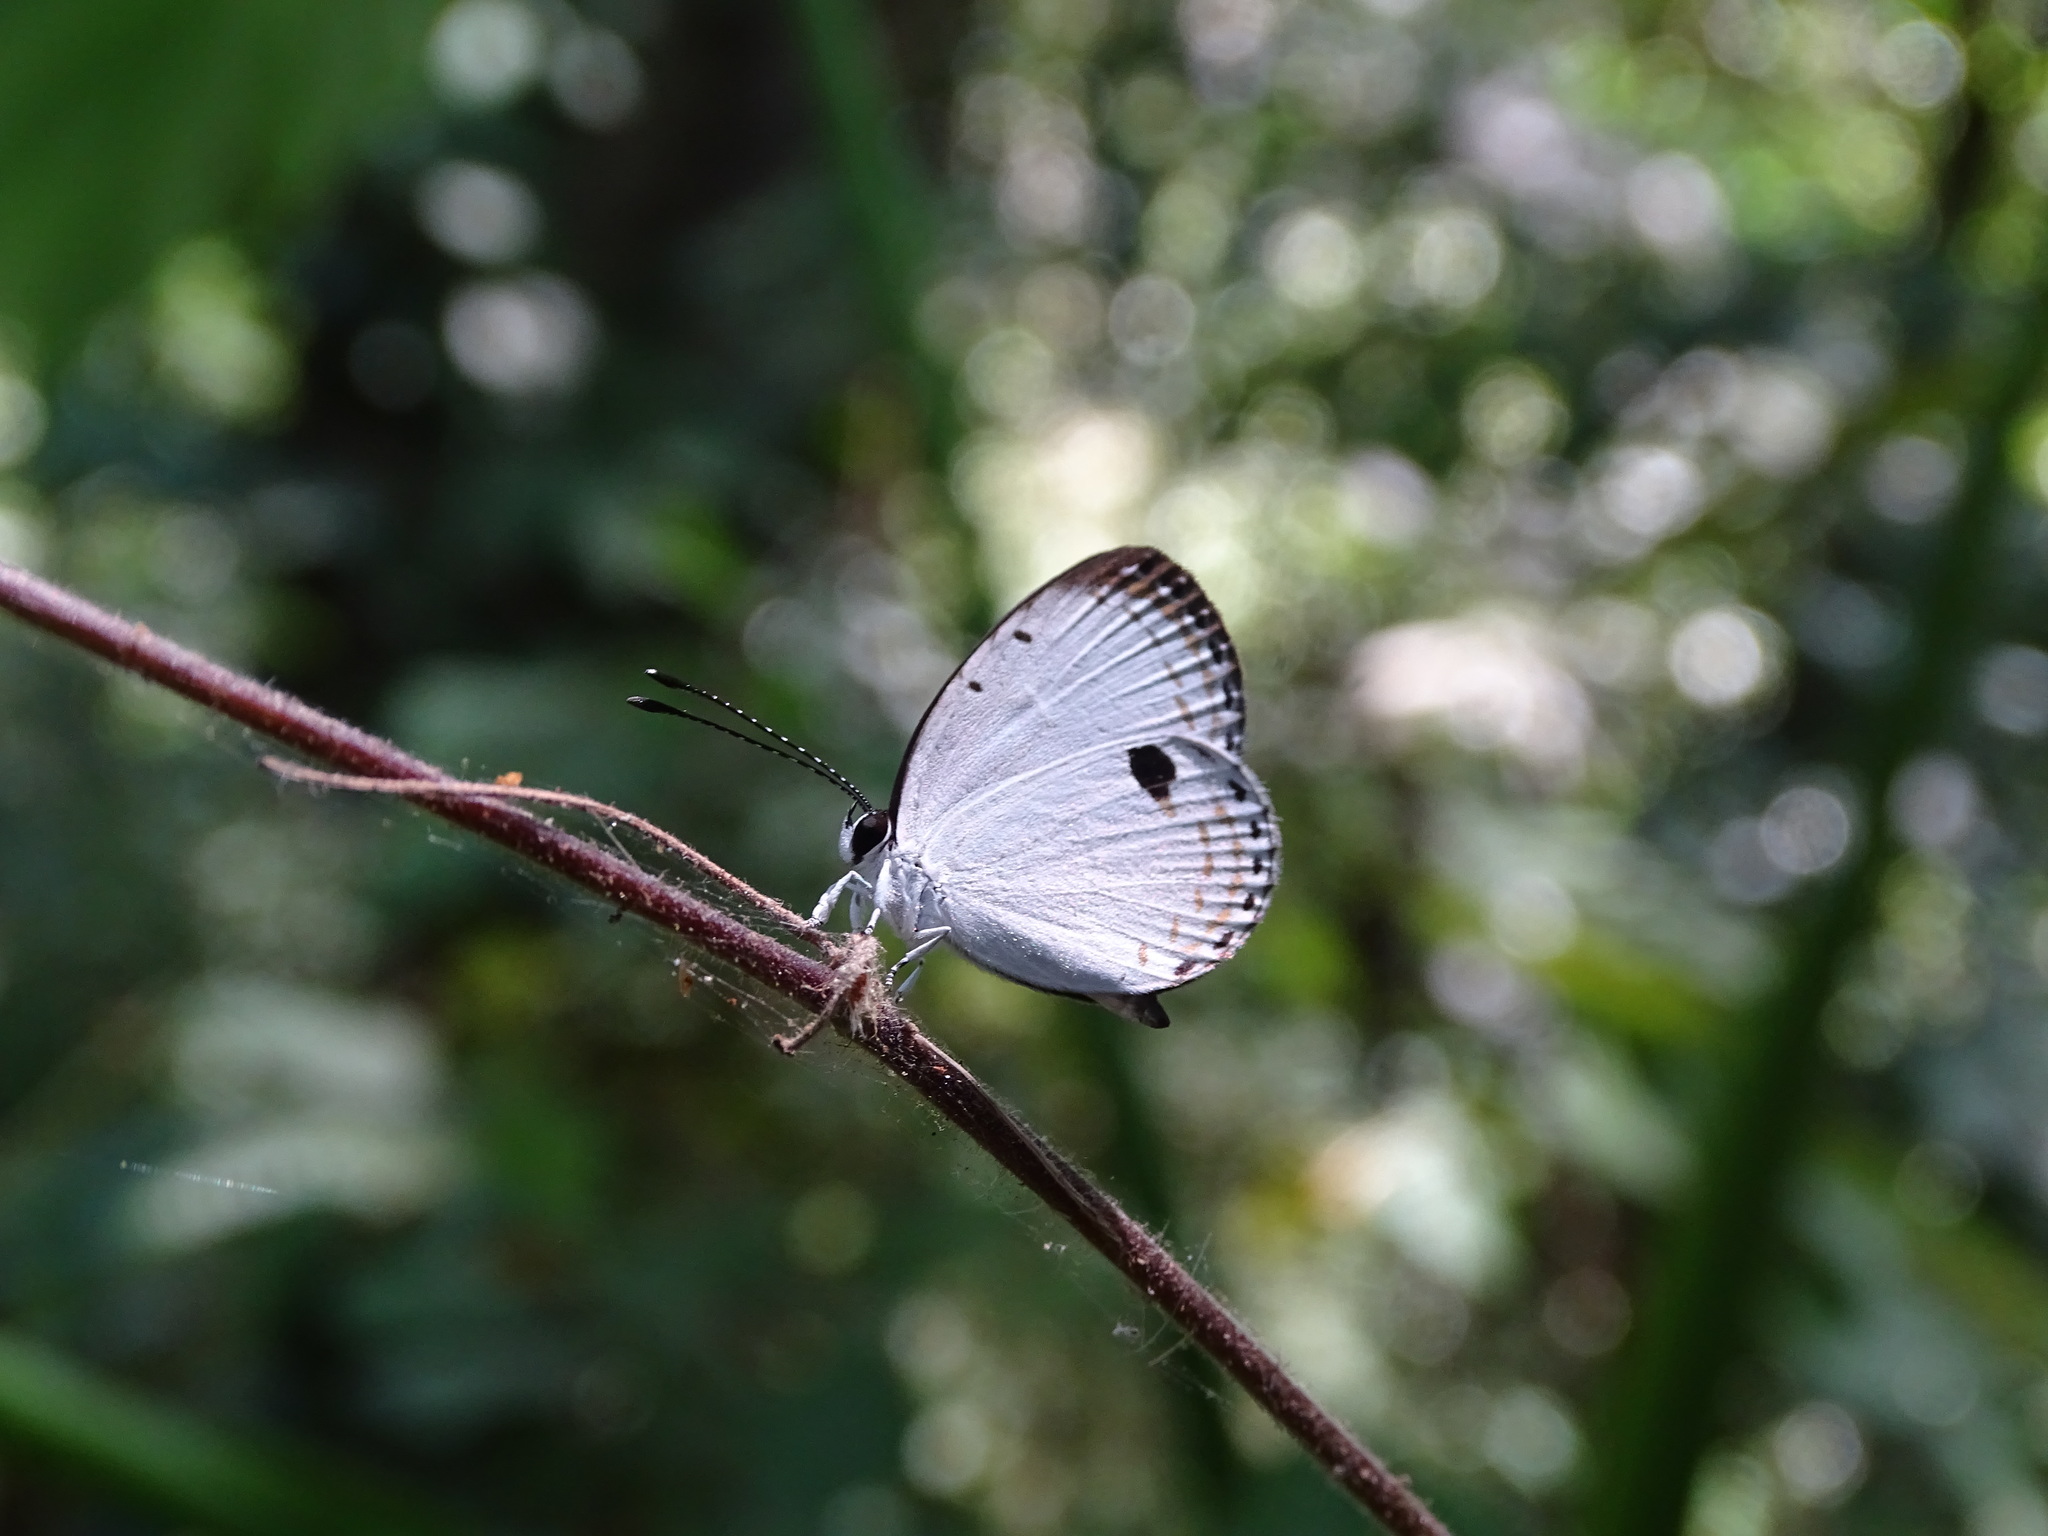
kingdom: Animalia
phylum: Arthropoda
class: Insecta
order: Lepidoptera
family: Lycaenidae
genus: Pithecops
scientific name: Pithecops corvus
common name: Forest quaker
